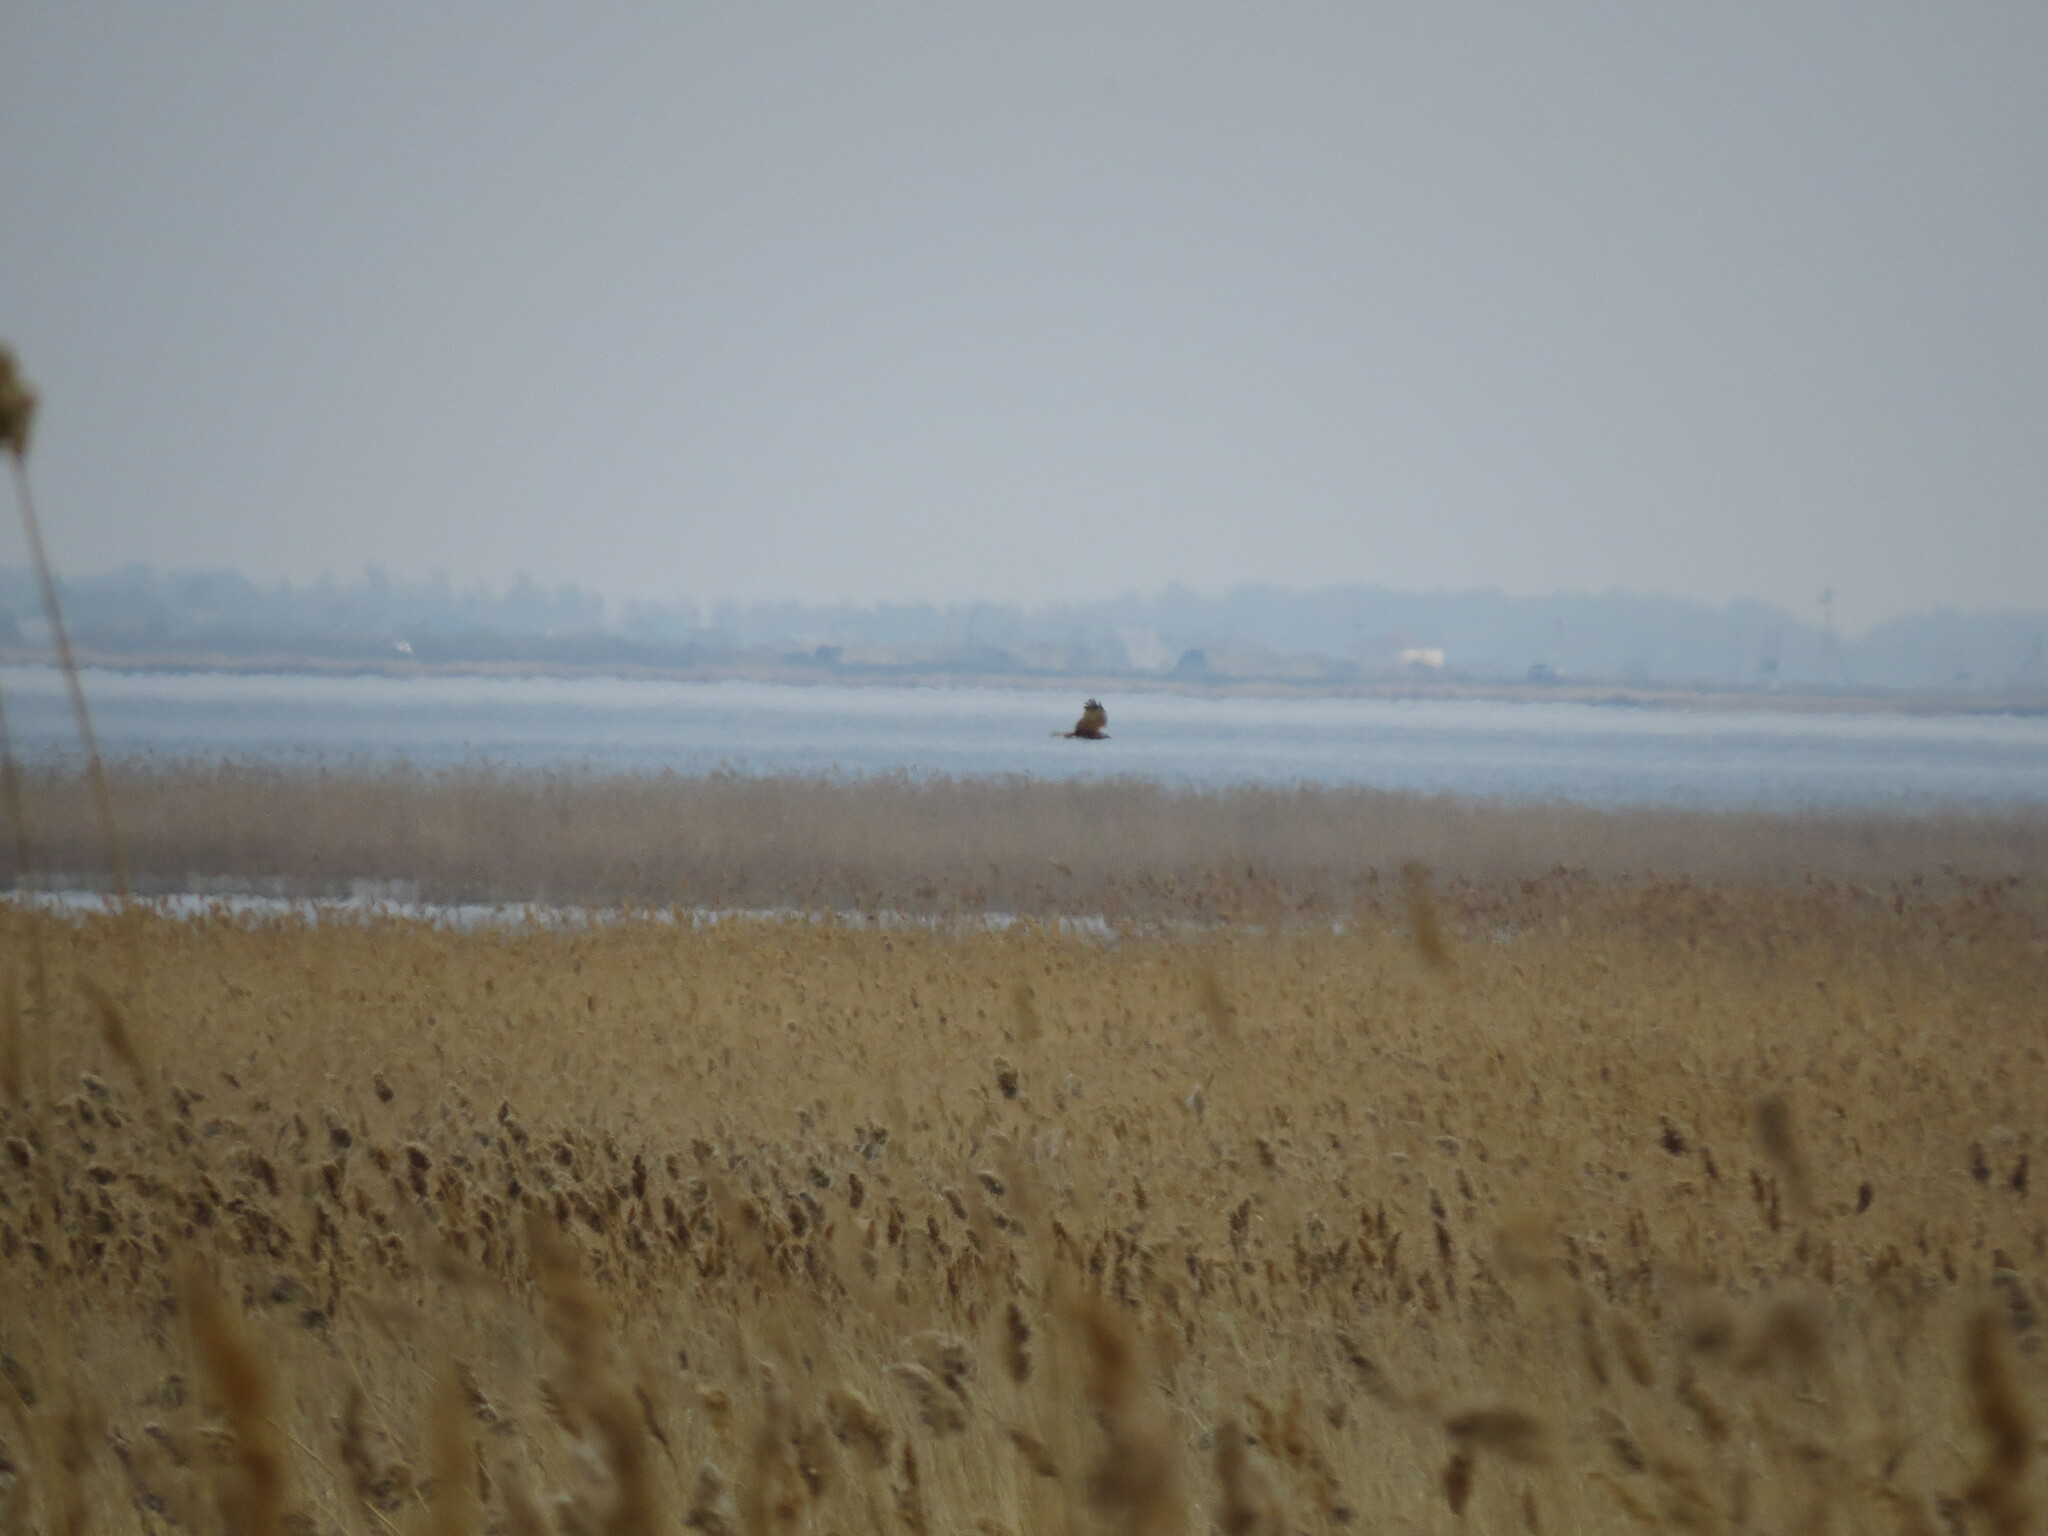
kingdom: Animalia
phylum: Chordata
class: Aves
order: Accipitriformes
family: Accipitridae
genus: Circus
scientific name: Circus aeruginosus
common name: Western marsh harrier
